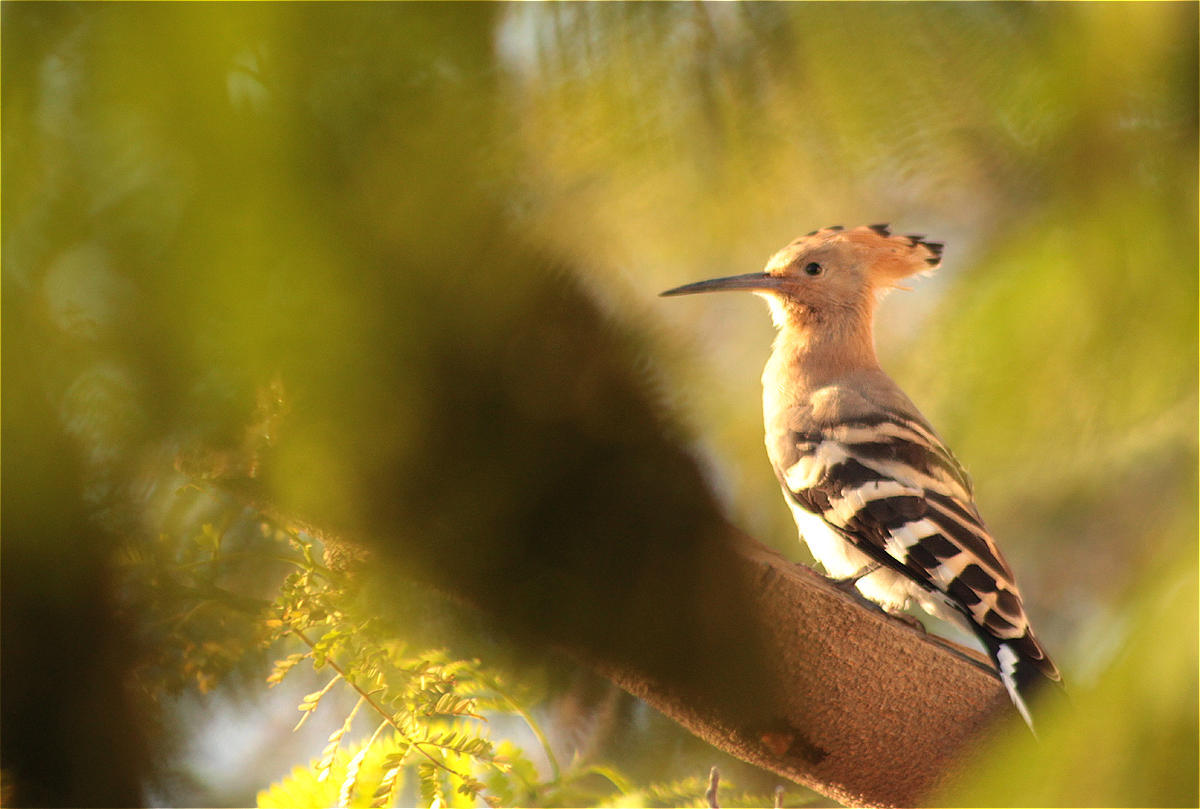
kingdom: Animalia
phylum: Chordata
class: Aves
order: Bucerotiformes
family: Upupidae
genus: Upupa
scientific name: Upupa epops
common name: Eurasian hoopoe
